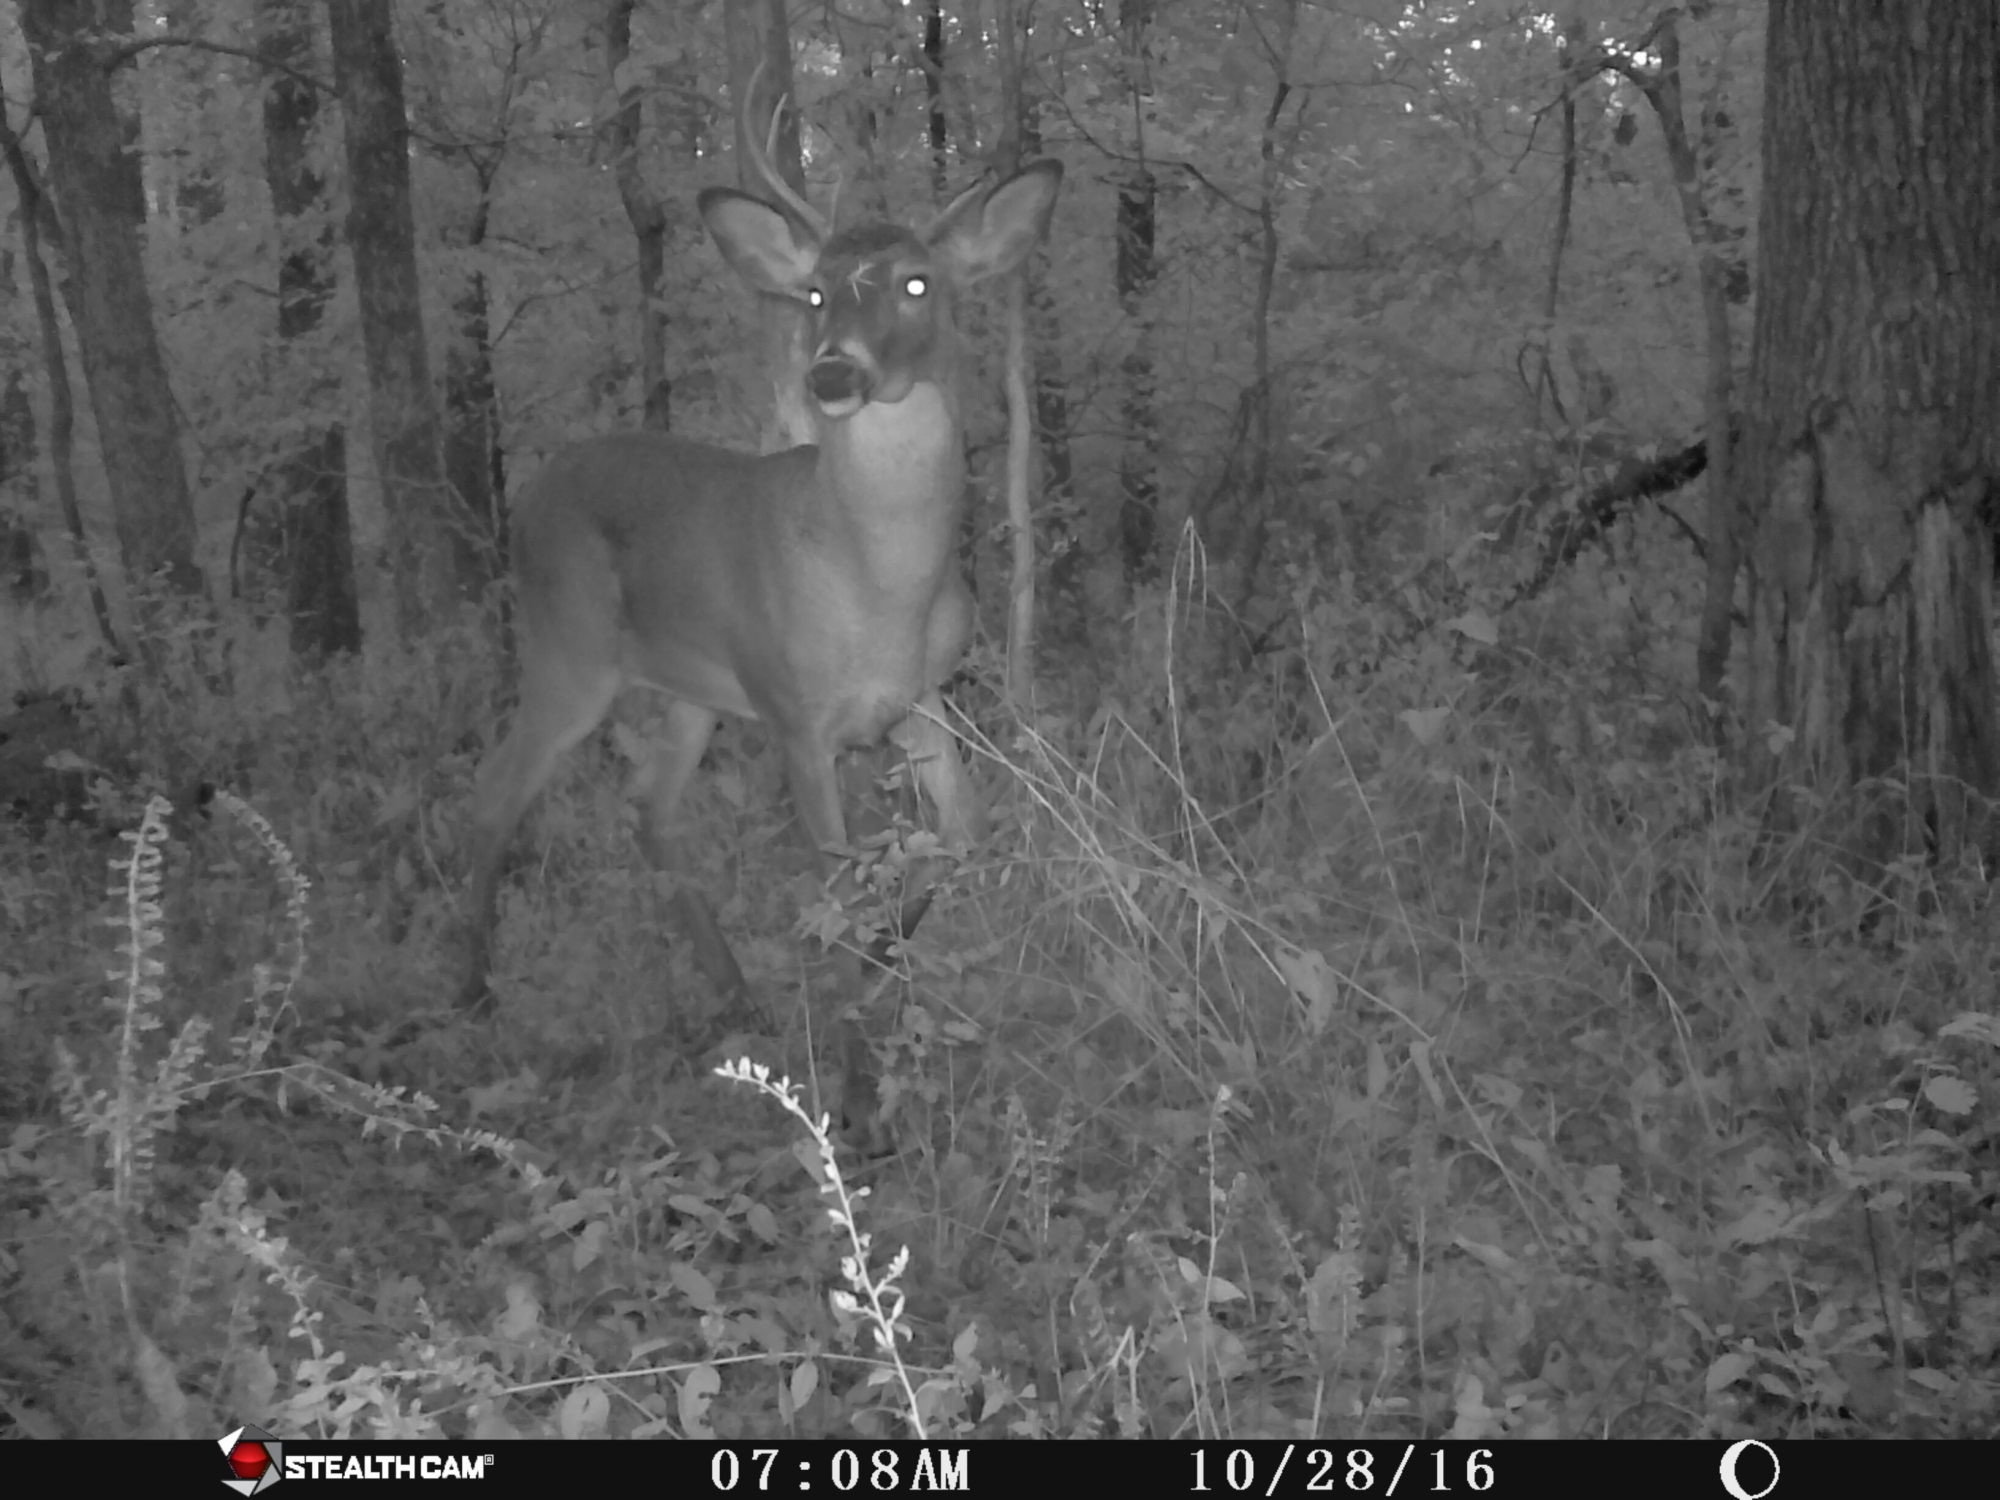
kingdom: Animalia
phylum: Chordata
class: Mammalia
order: Artiodactyla
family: Cervidae
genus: Odocoileus
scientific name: Odocoileus virginianus
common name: White-tailed deer
